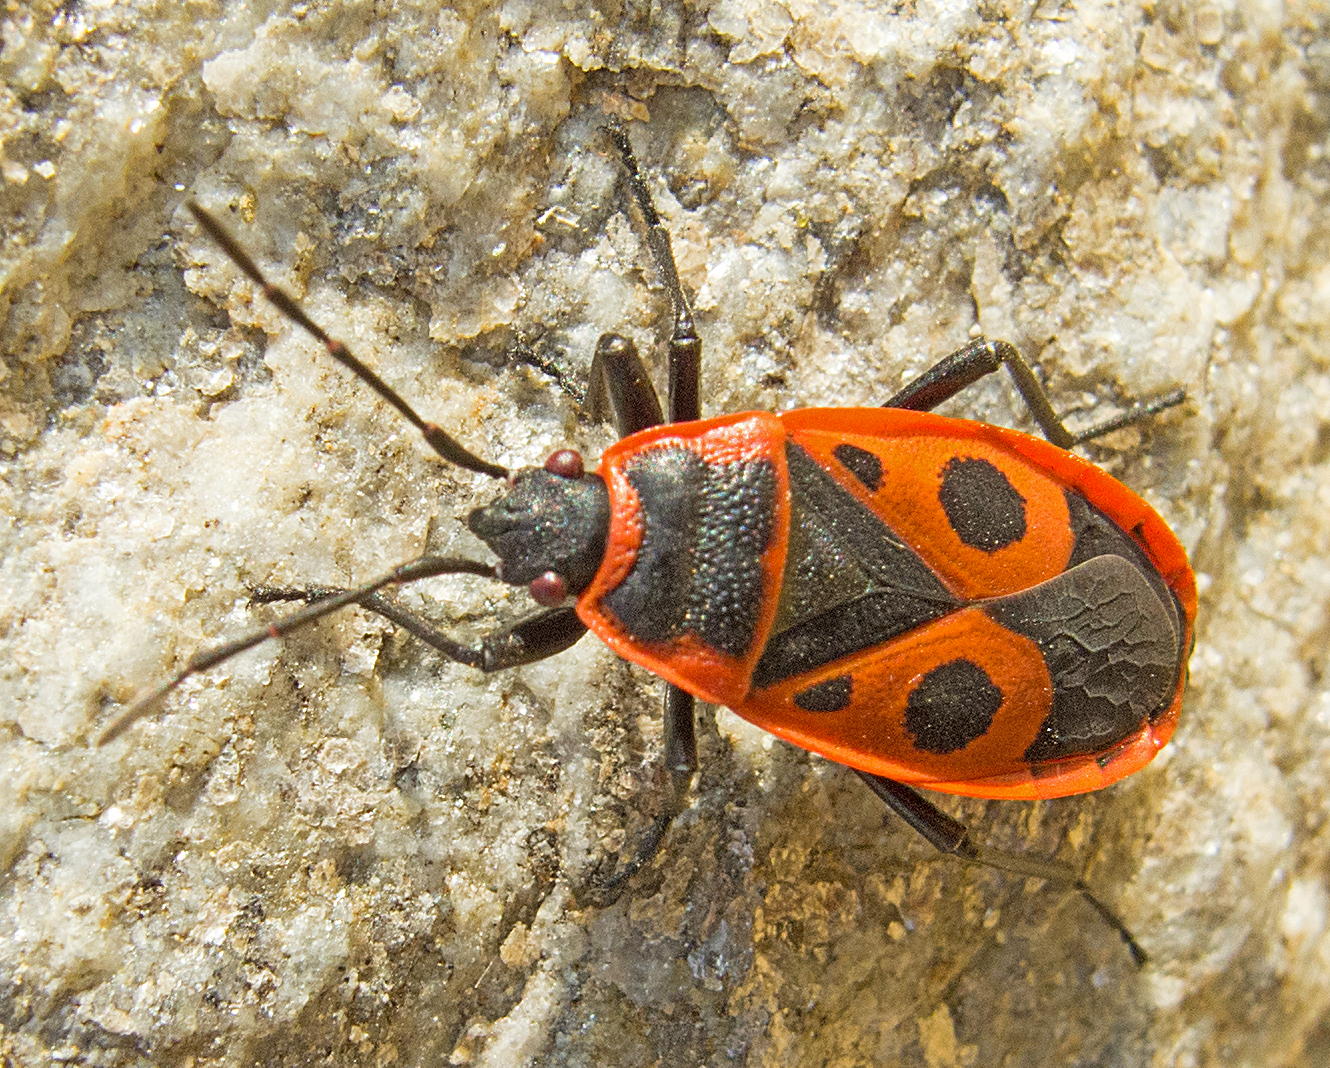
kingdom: Animalia
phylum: Arthropoda
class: Insecta
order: Hemiptera
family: Pyrrhocoridae
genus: Pyrrhocoris
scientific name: Pyrrhocoris apterus
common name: Firebug
